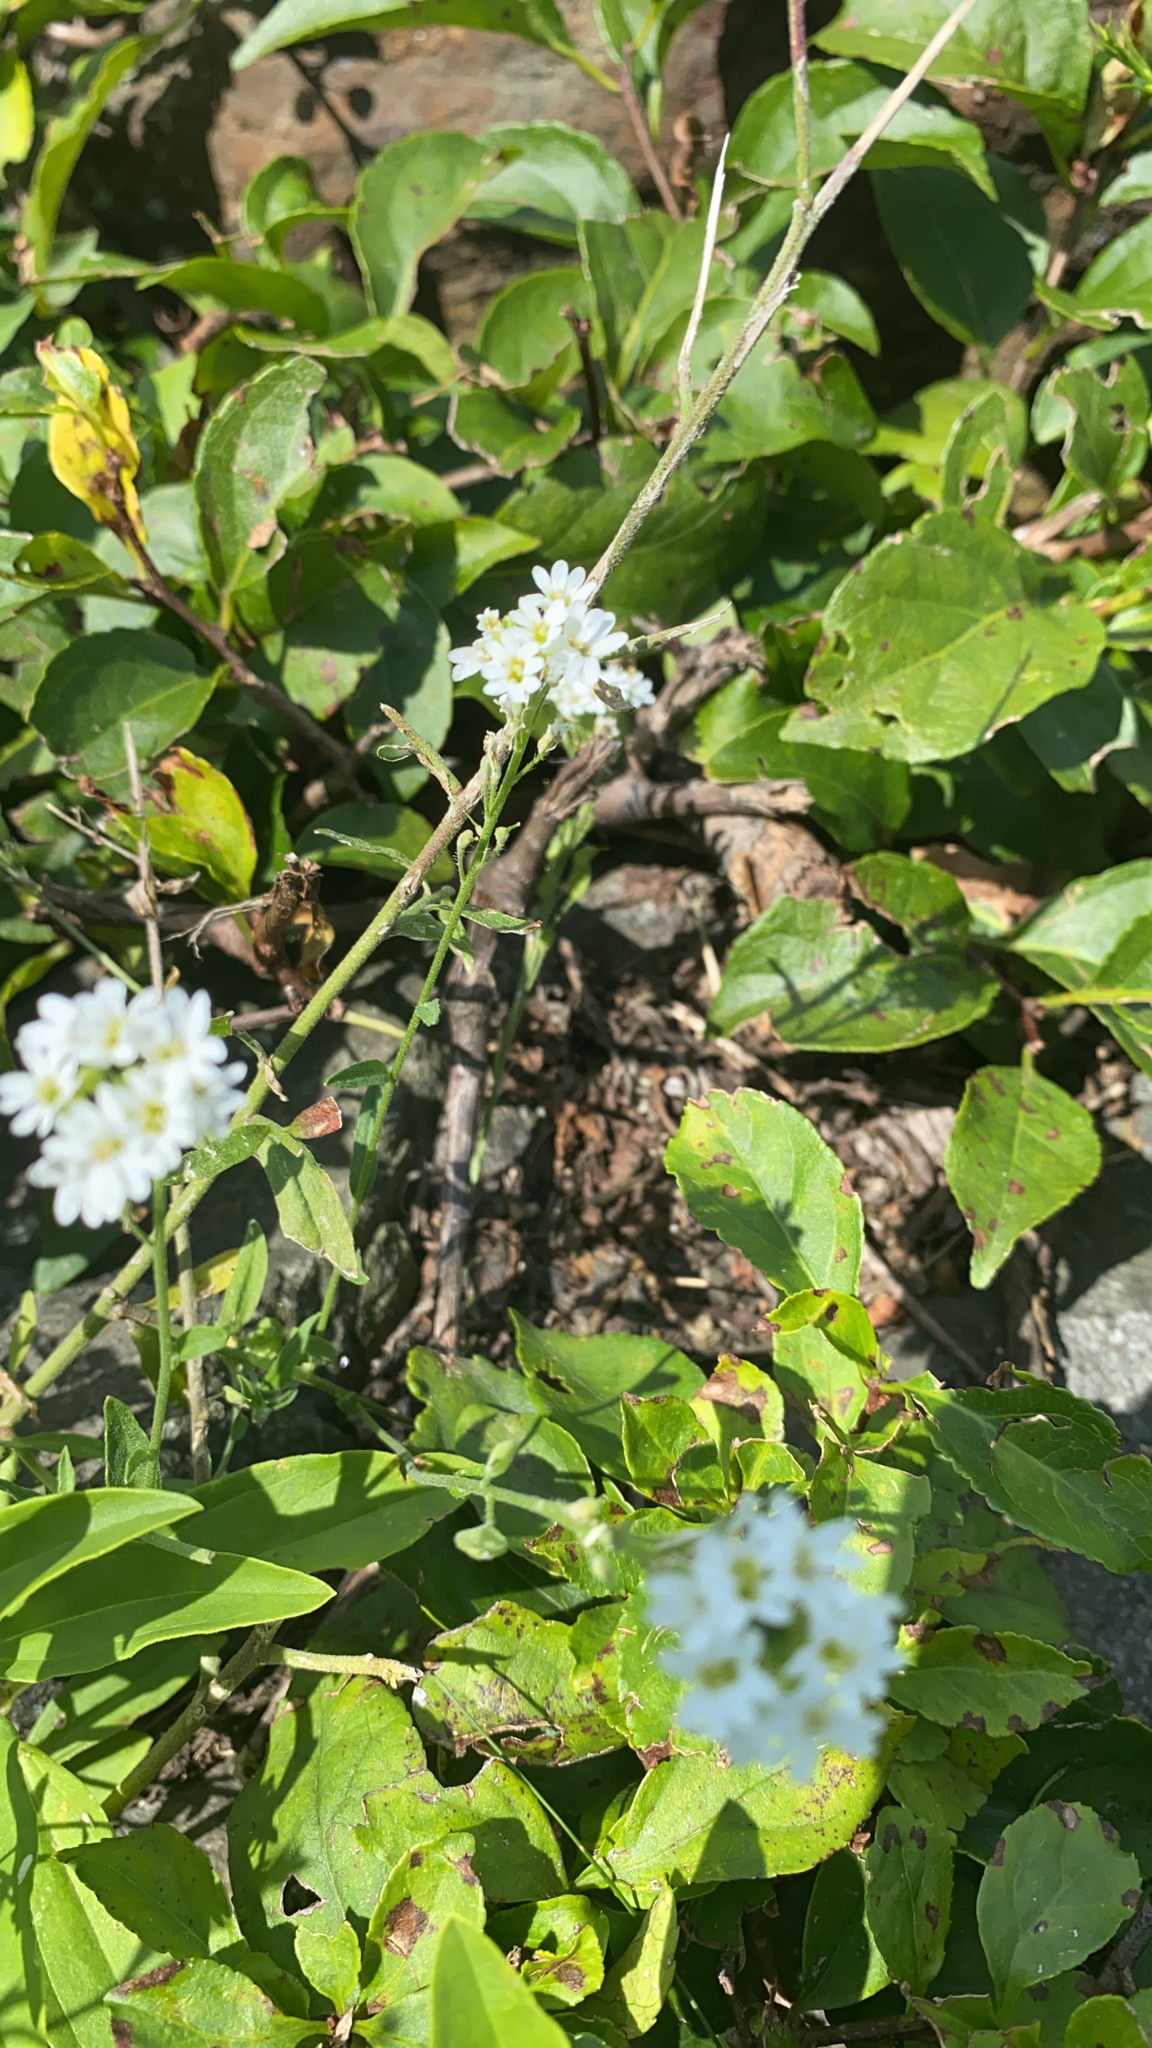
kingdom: Plantae
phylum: Tracheophyta
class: Magnoliopsida
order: Brassicales
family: Brassicaceae
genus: Berteroa
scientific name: Berteroa incana
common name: Hoary alison
